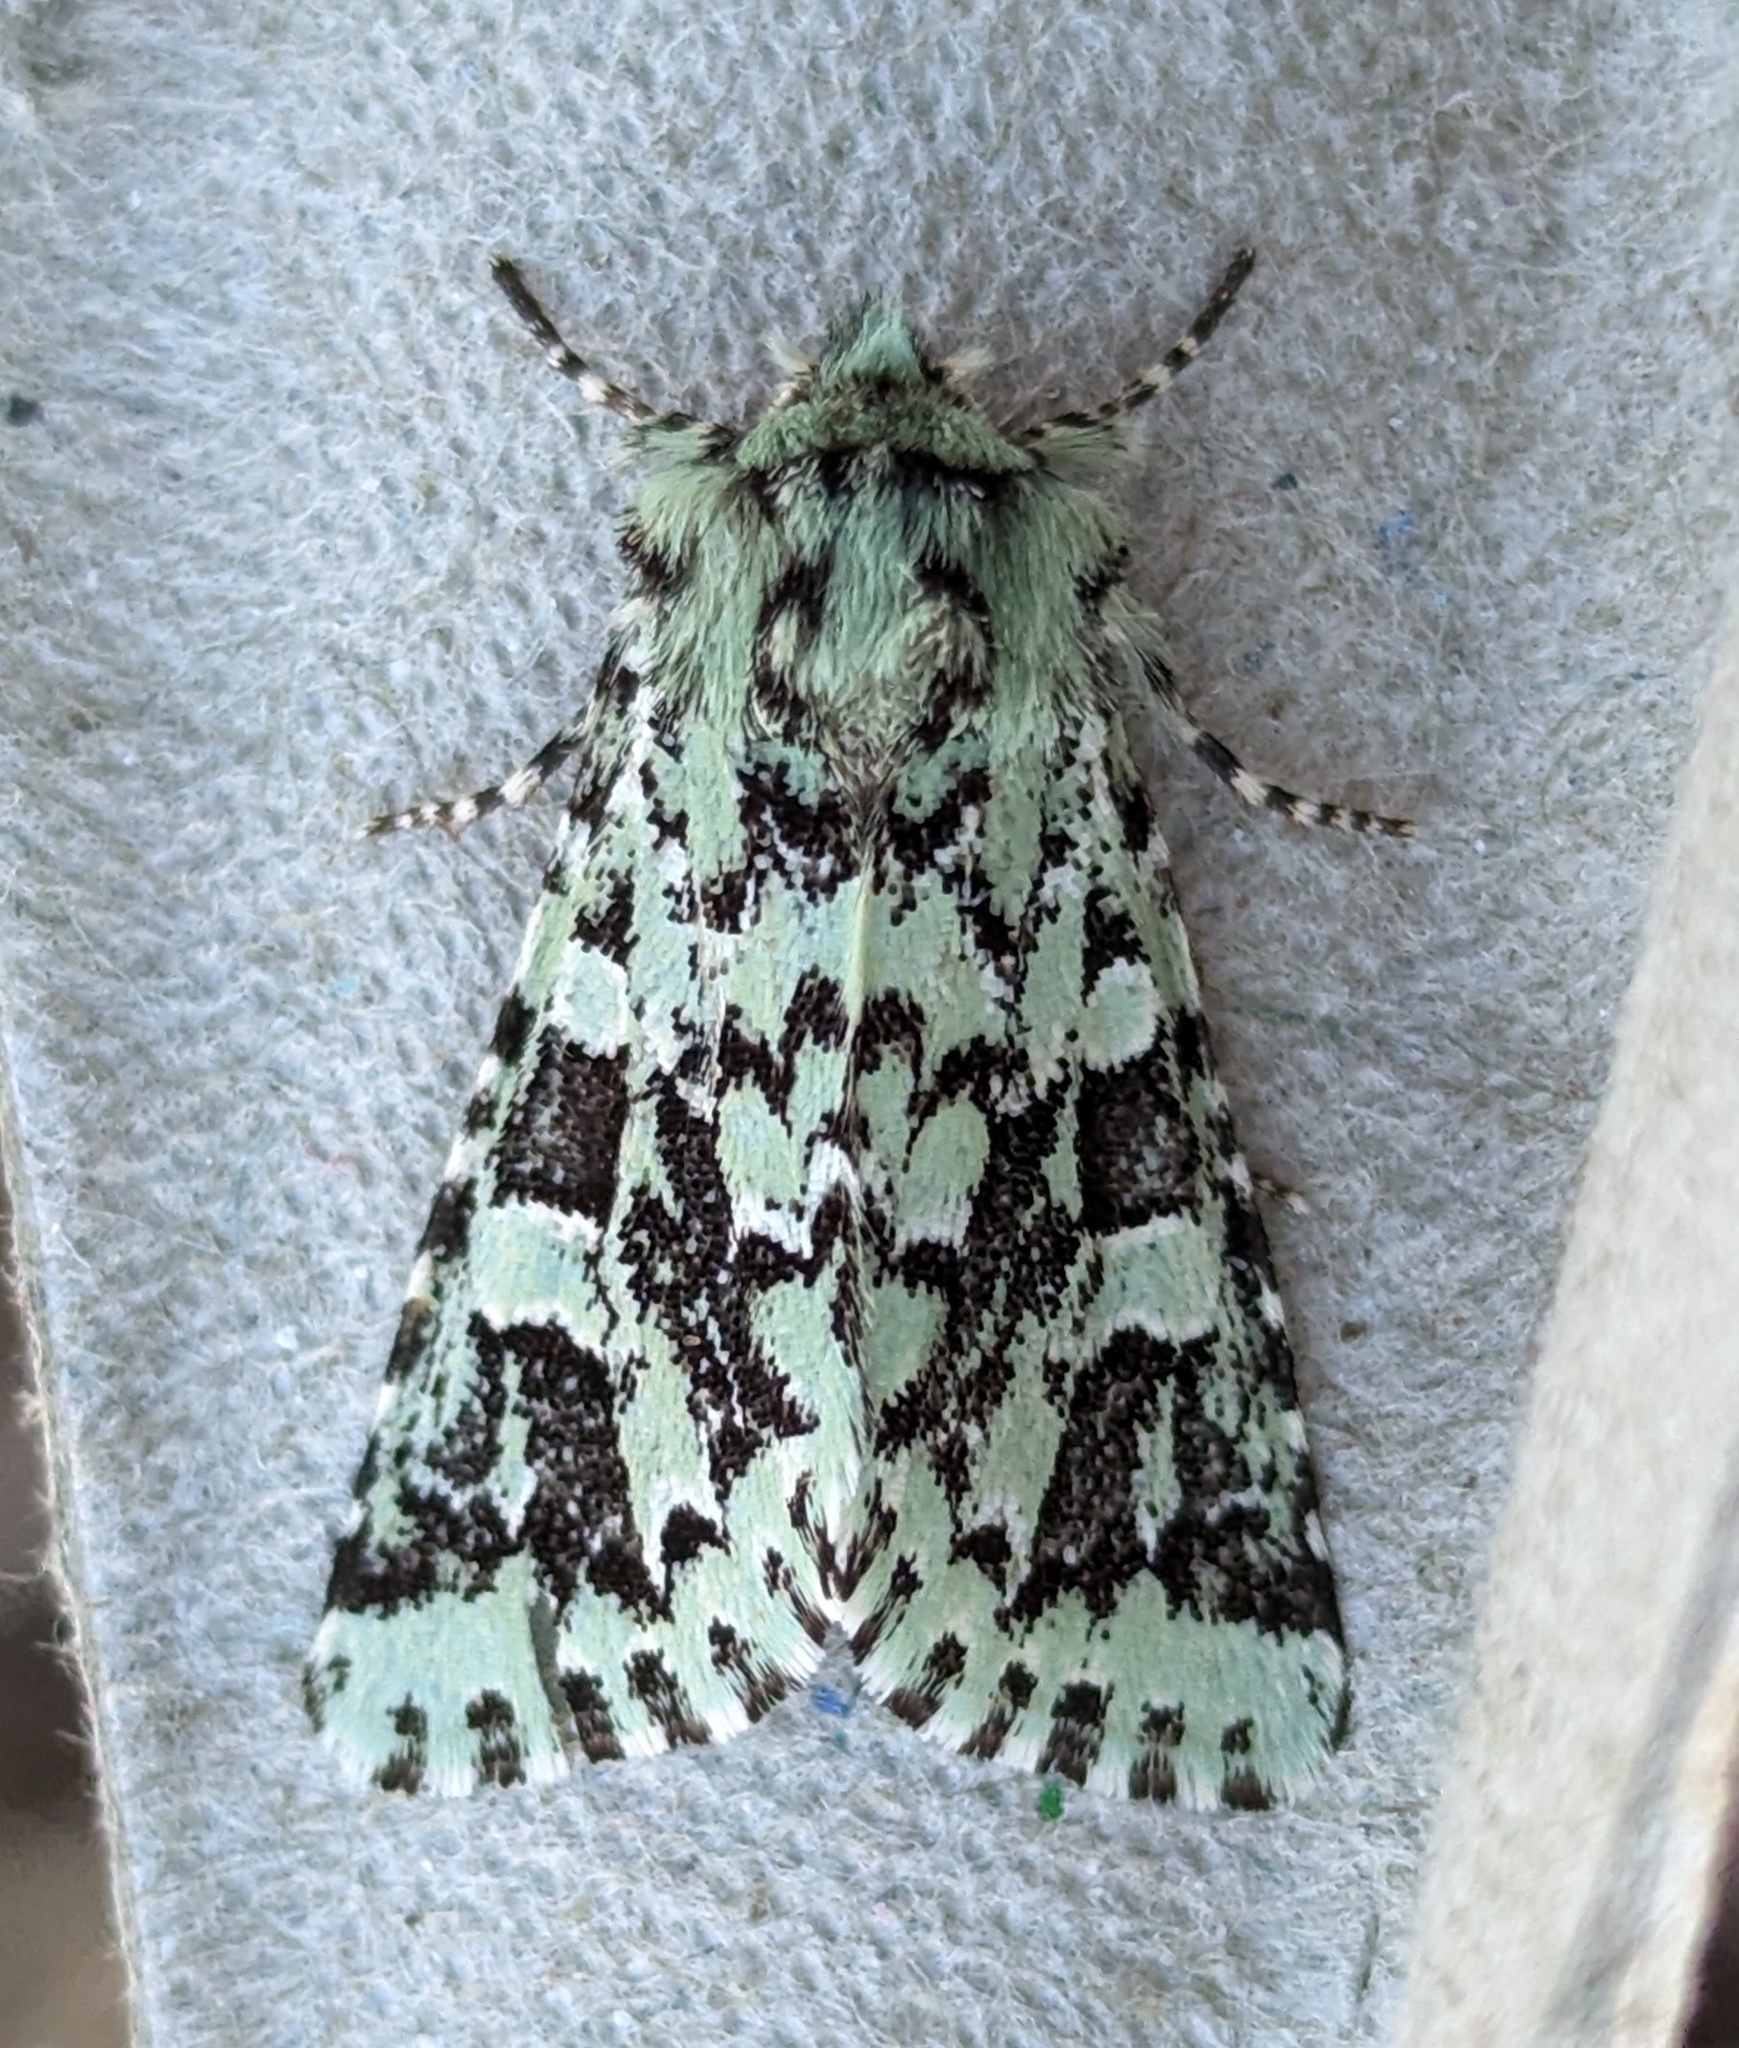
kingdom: Animalia
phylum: Arthropoda
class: Insecta
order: Lepidoptera
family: Noctuidae
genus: Feralia
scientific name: Feralia comstocki
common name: Comstock's sallow
